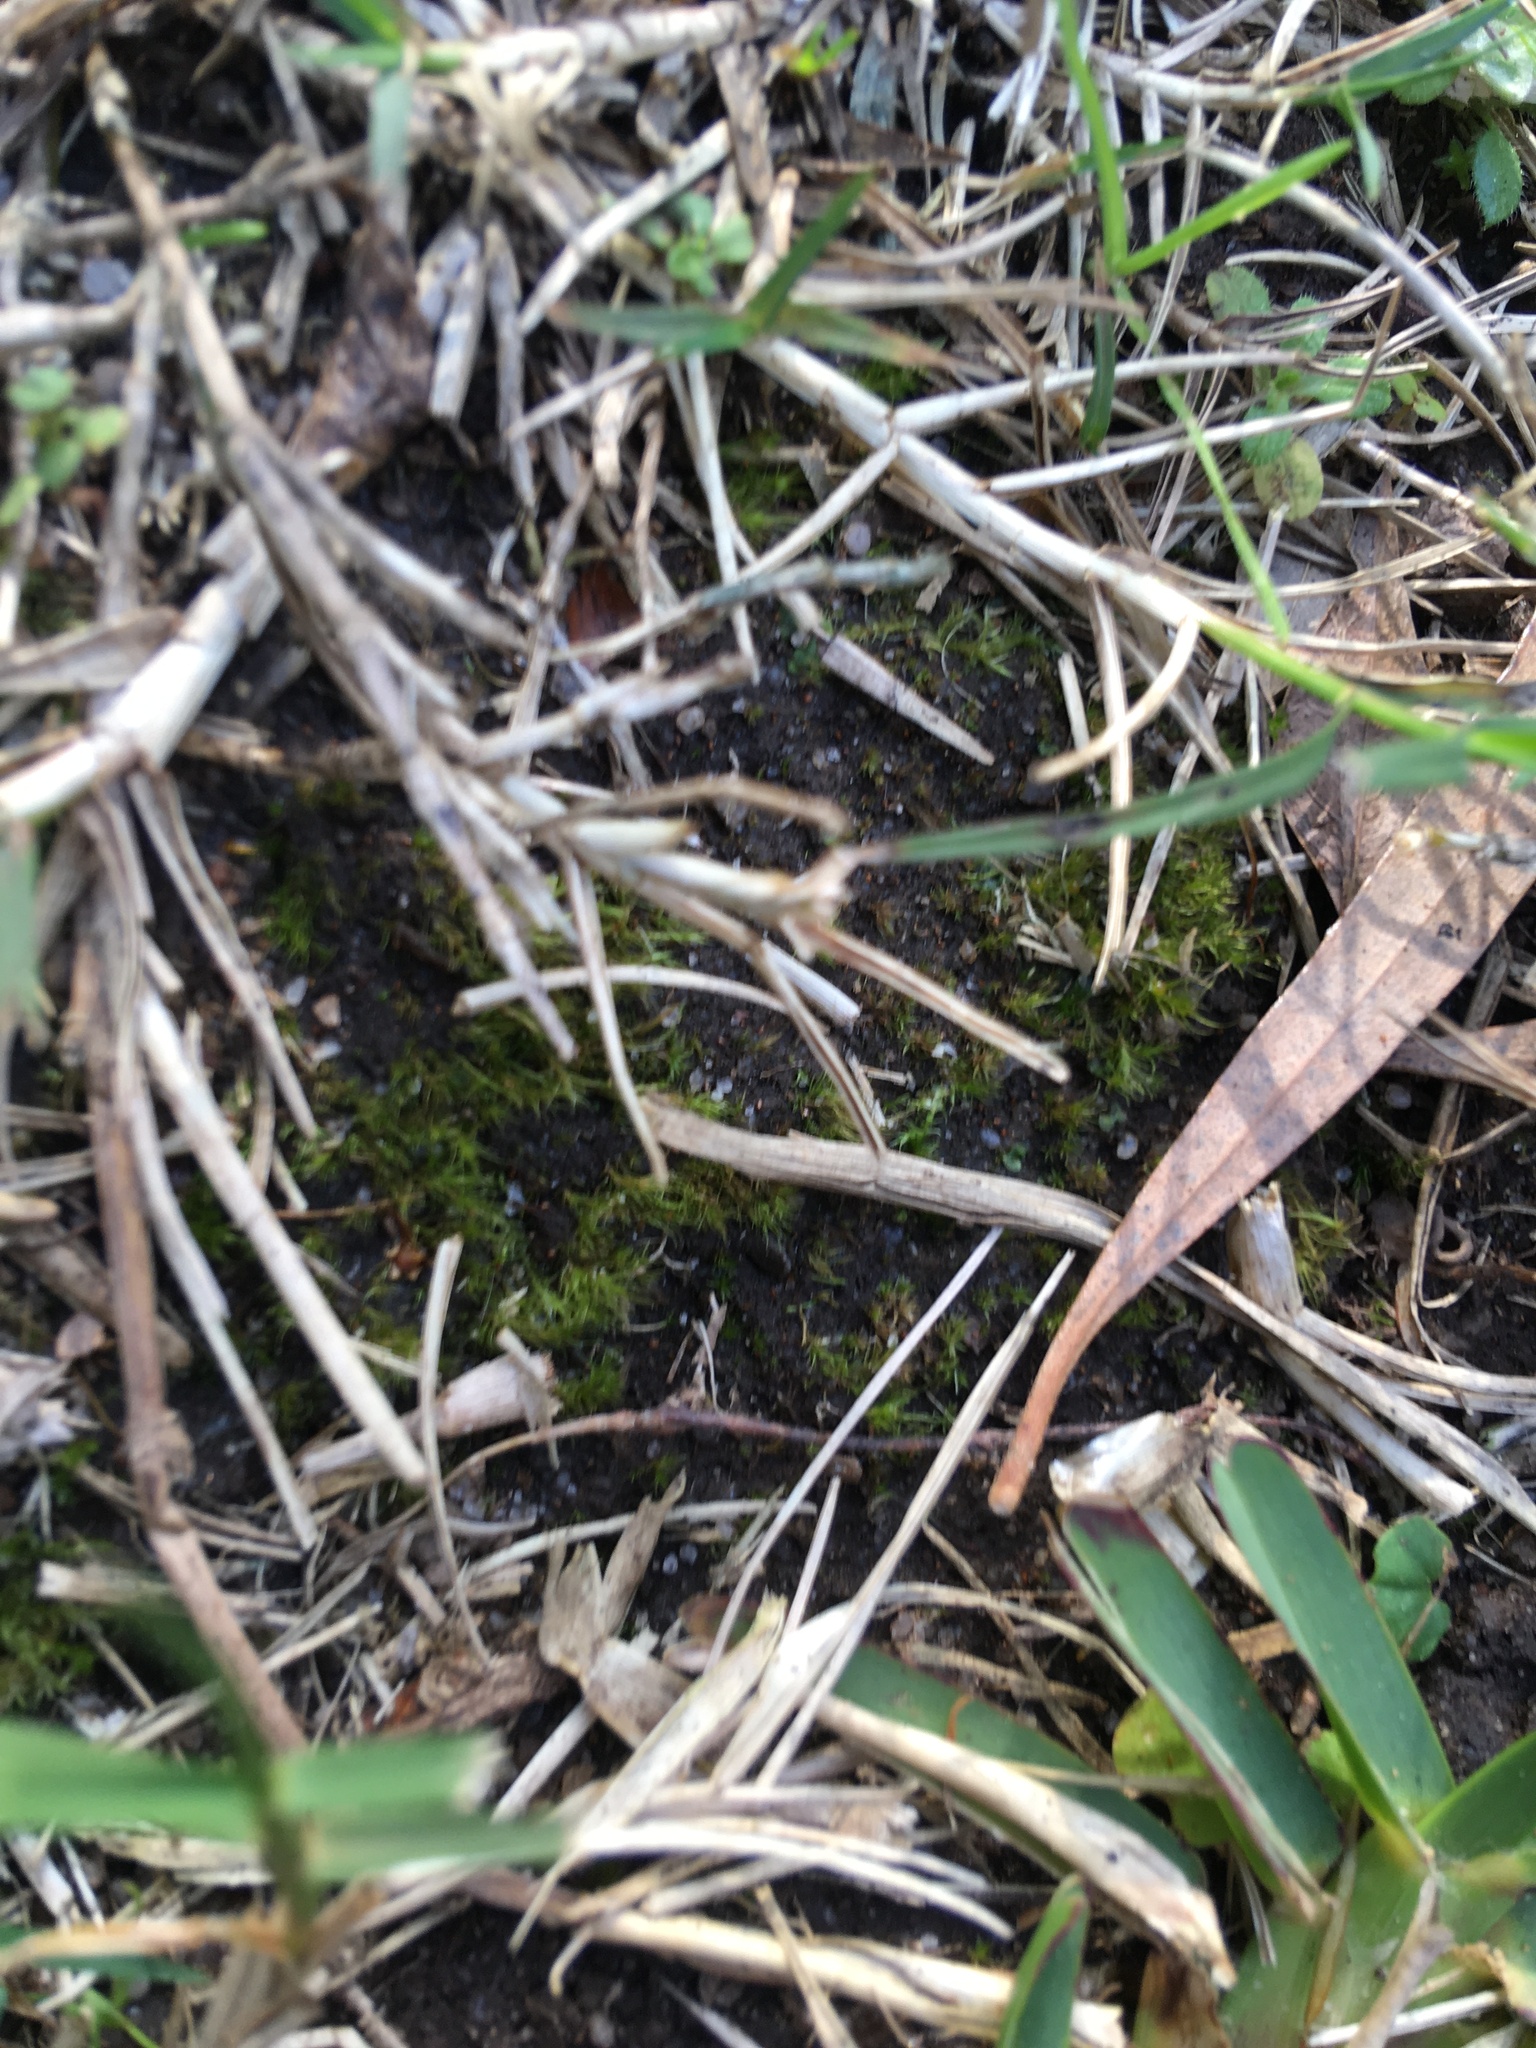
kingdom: Plantae
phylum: Bryophyta
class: Bryopsida
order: Dicranales
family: Ditrichaceae
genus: Pleuridium
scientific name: Pleuridium pappeanum
